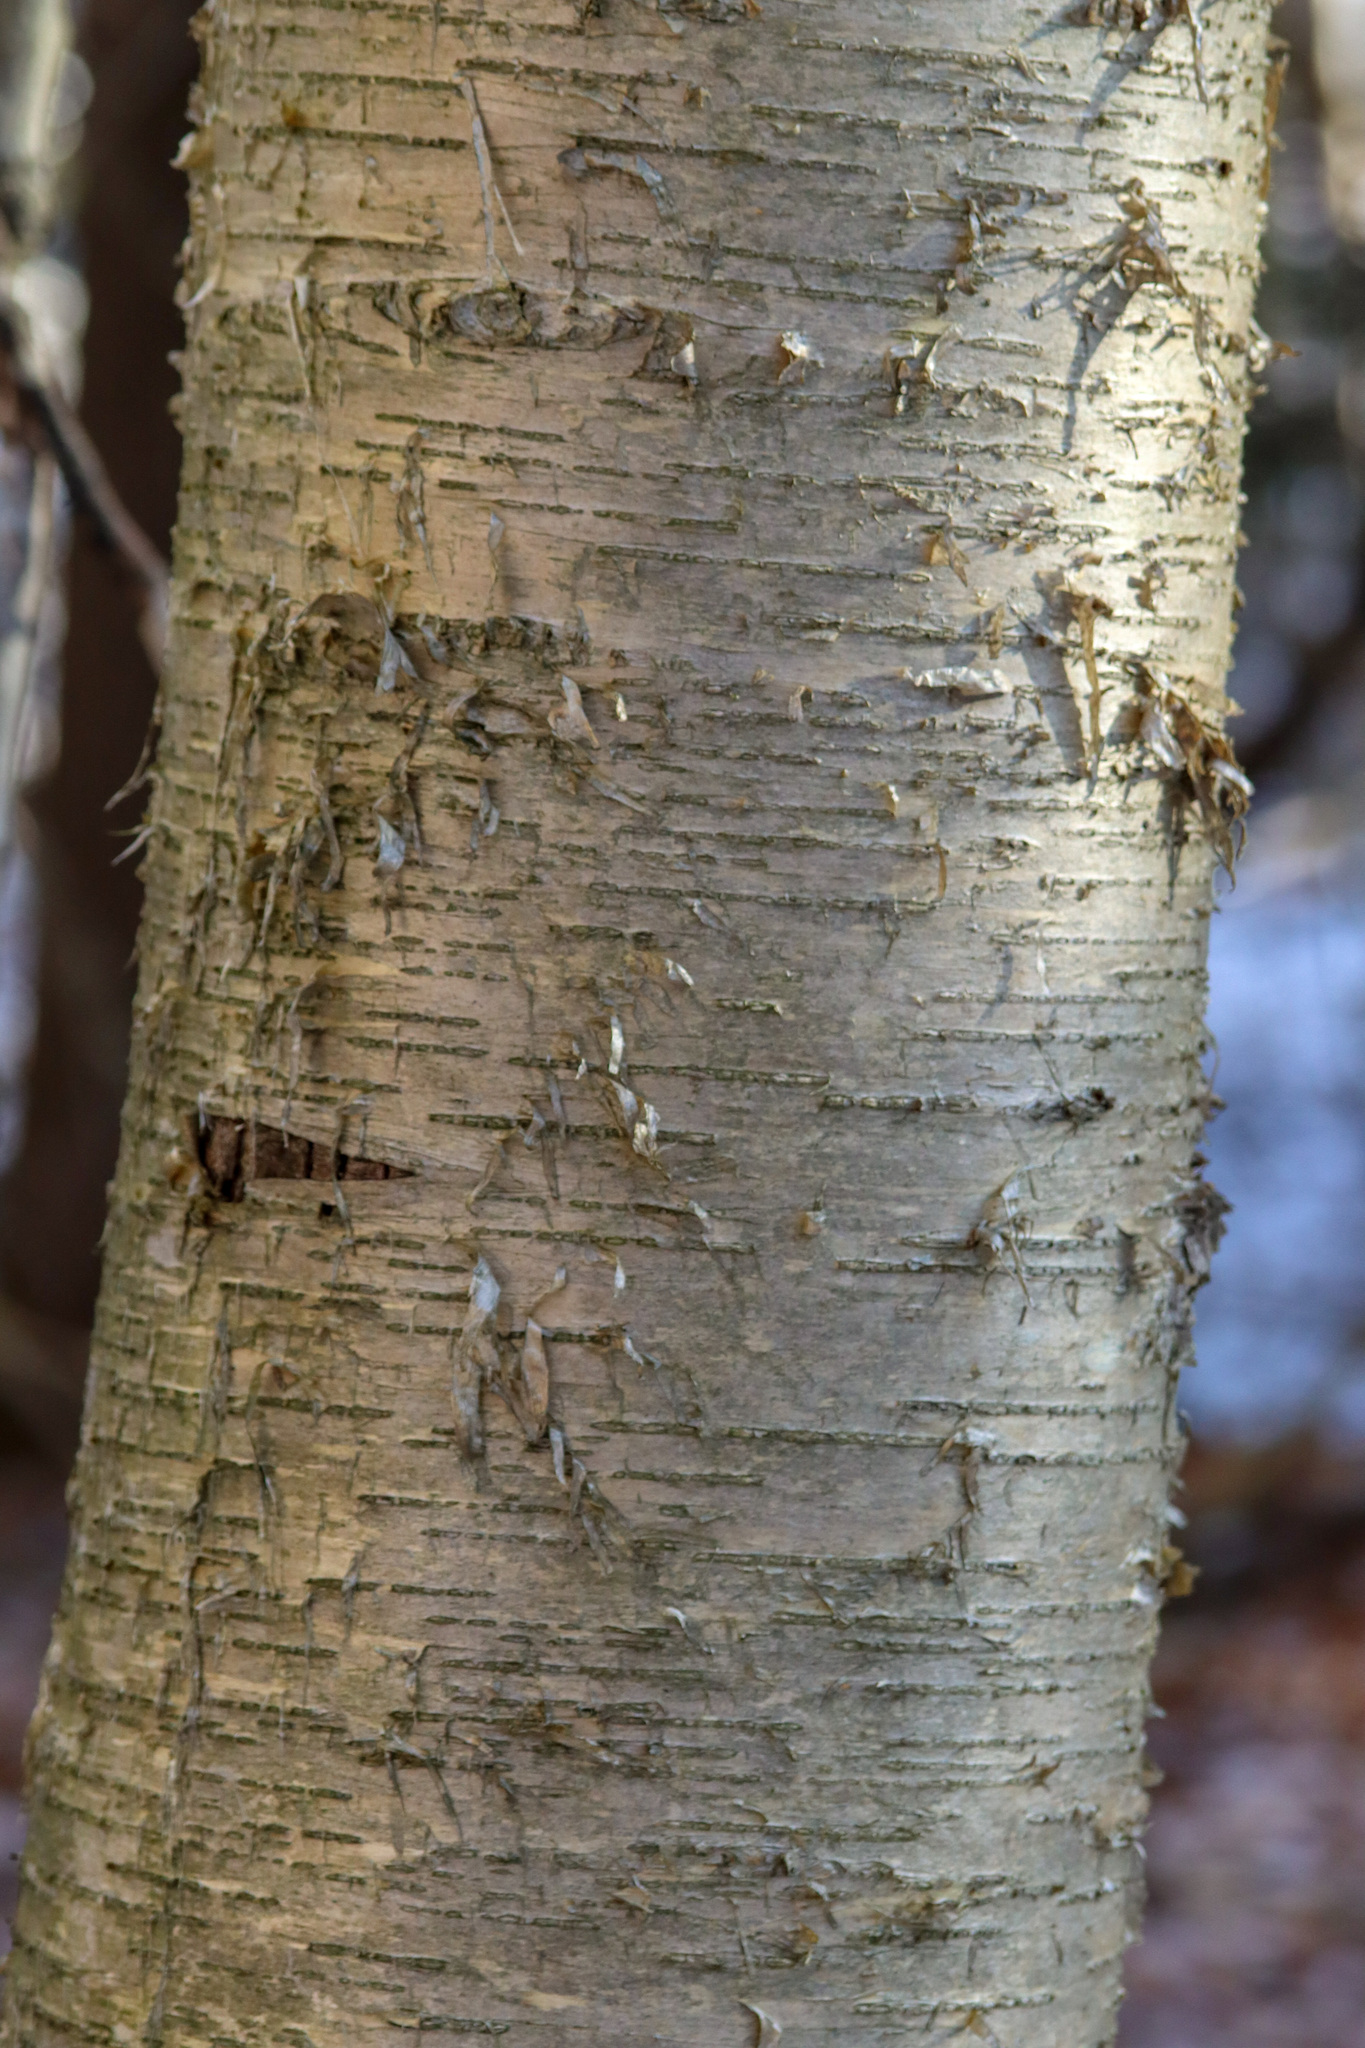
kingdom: Plantae
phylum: Tracheophyta
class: Magnoliopsida
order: Fagales
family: Betulaceae
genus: Betula
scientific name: Betula alleghaniensis
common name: Yellow birch
